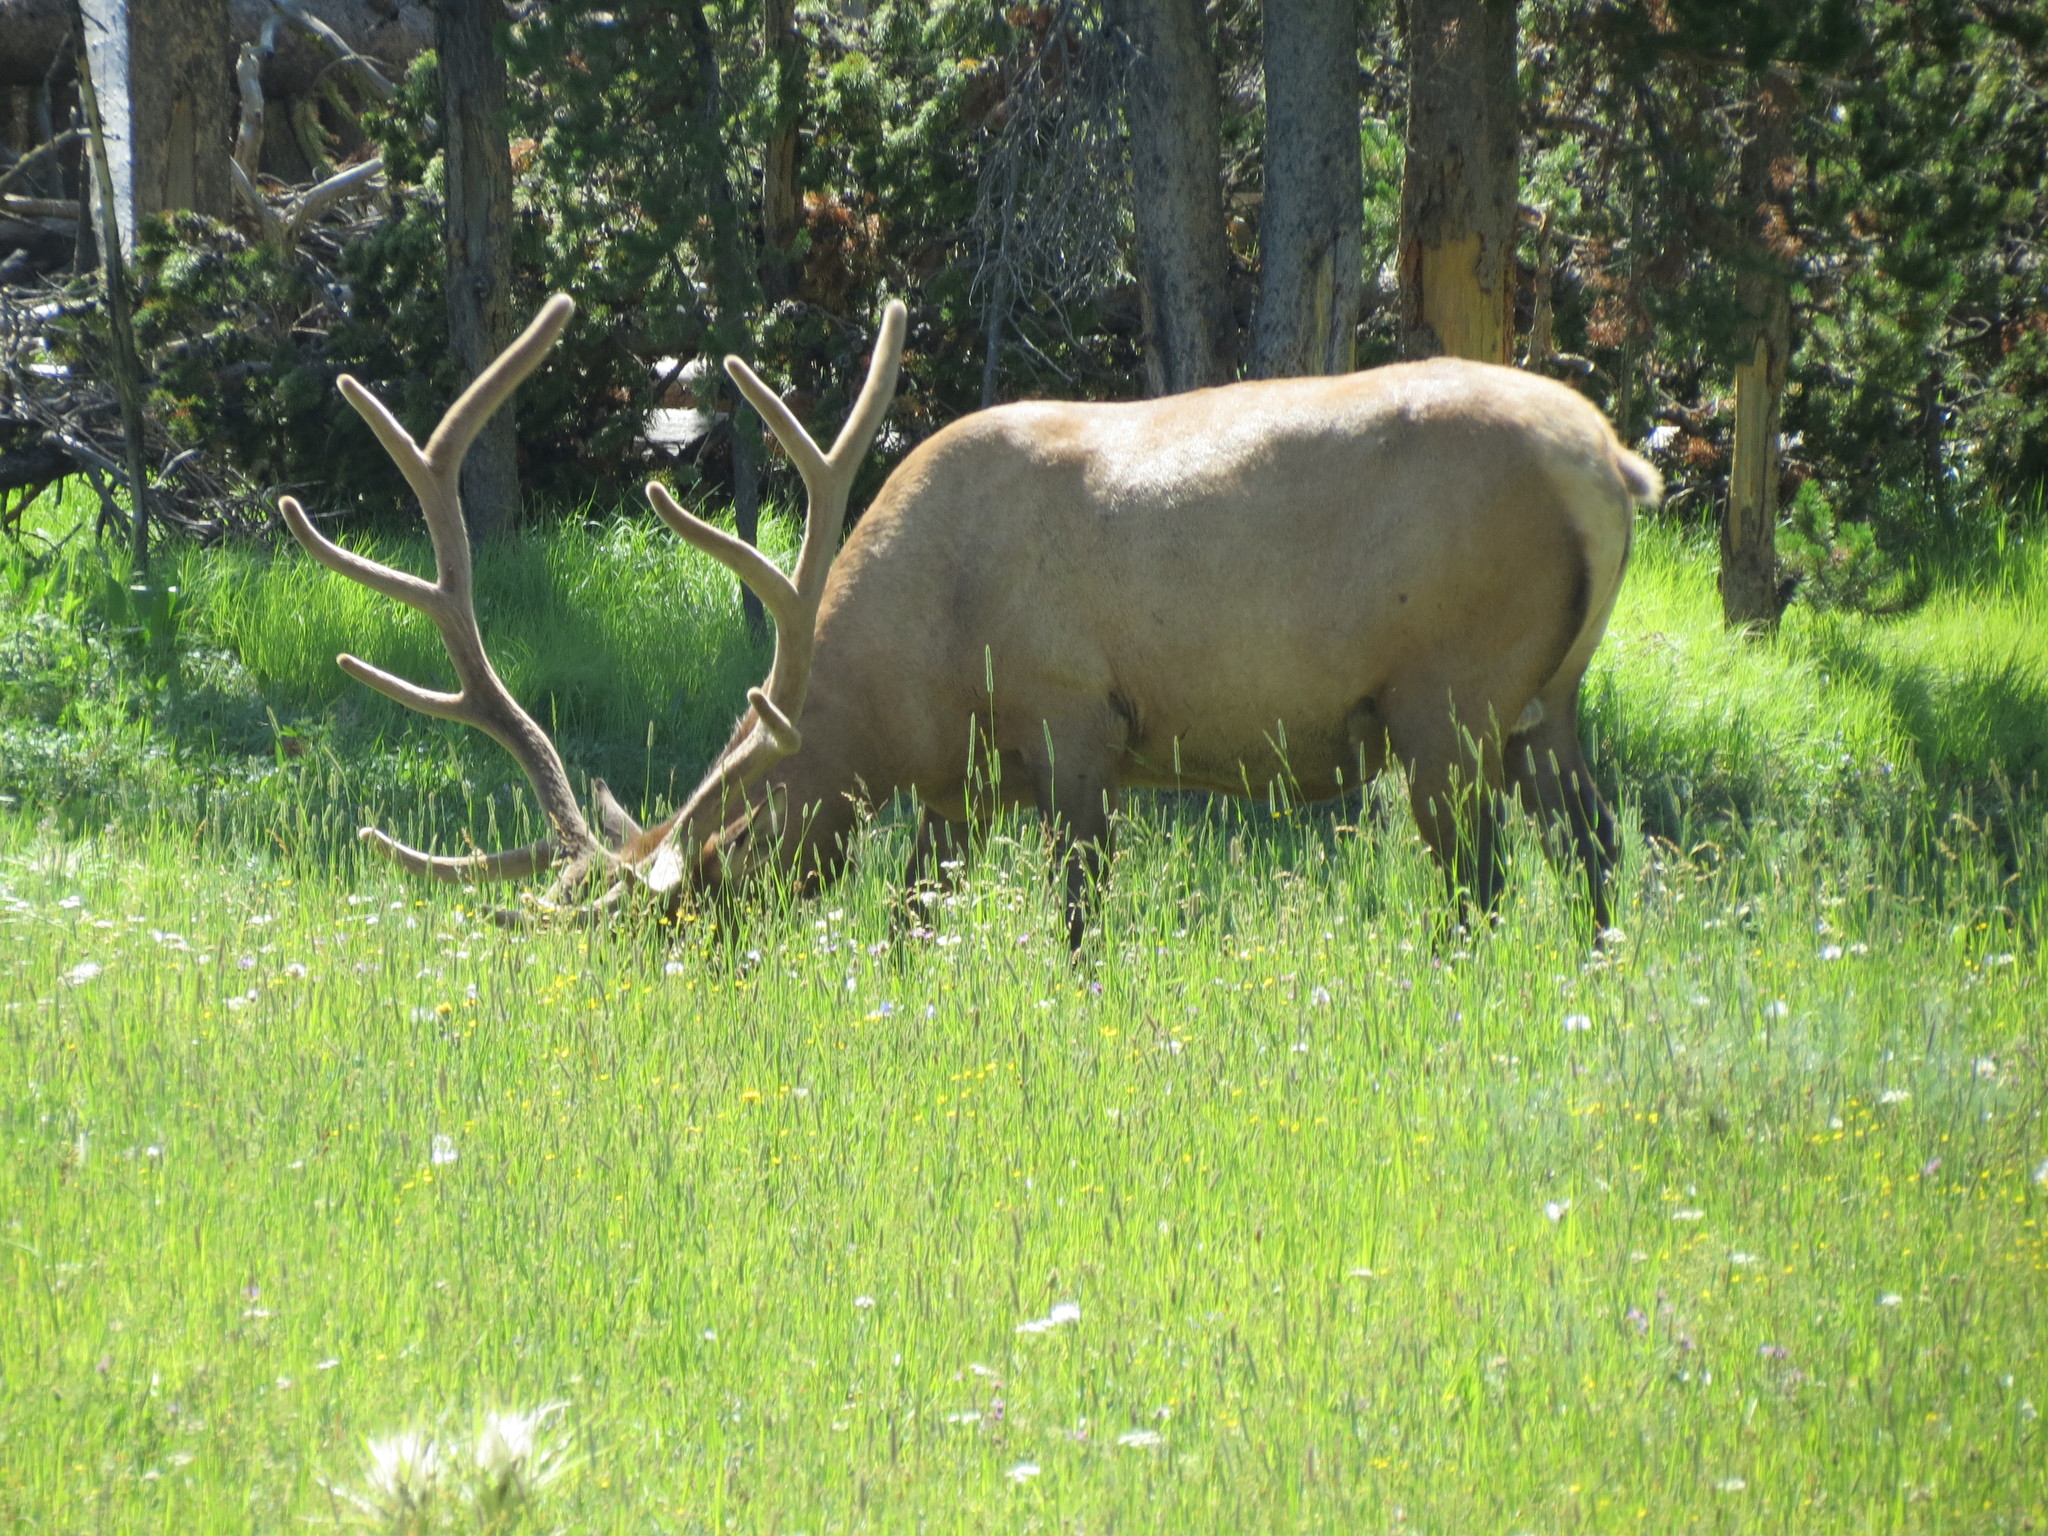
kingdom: Animalia
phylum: Chordata
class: Mammalia
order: Artiodactyla
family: Cervidae
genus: Cervus
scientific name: Cervus elaphus
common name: Red deer
